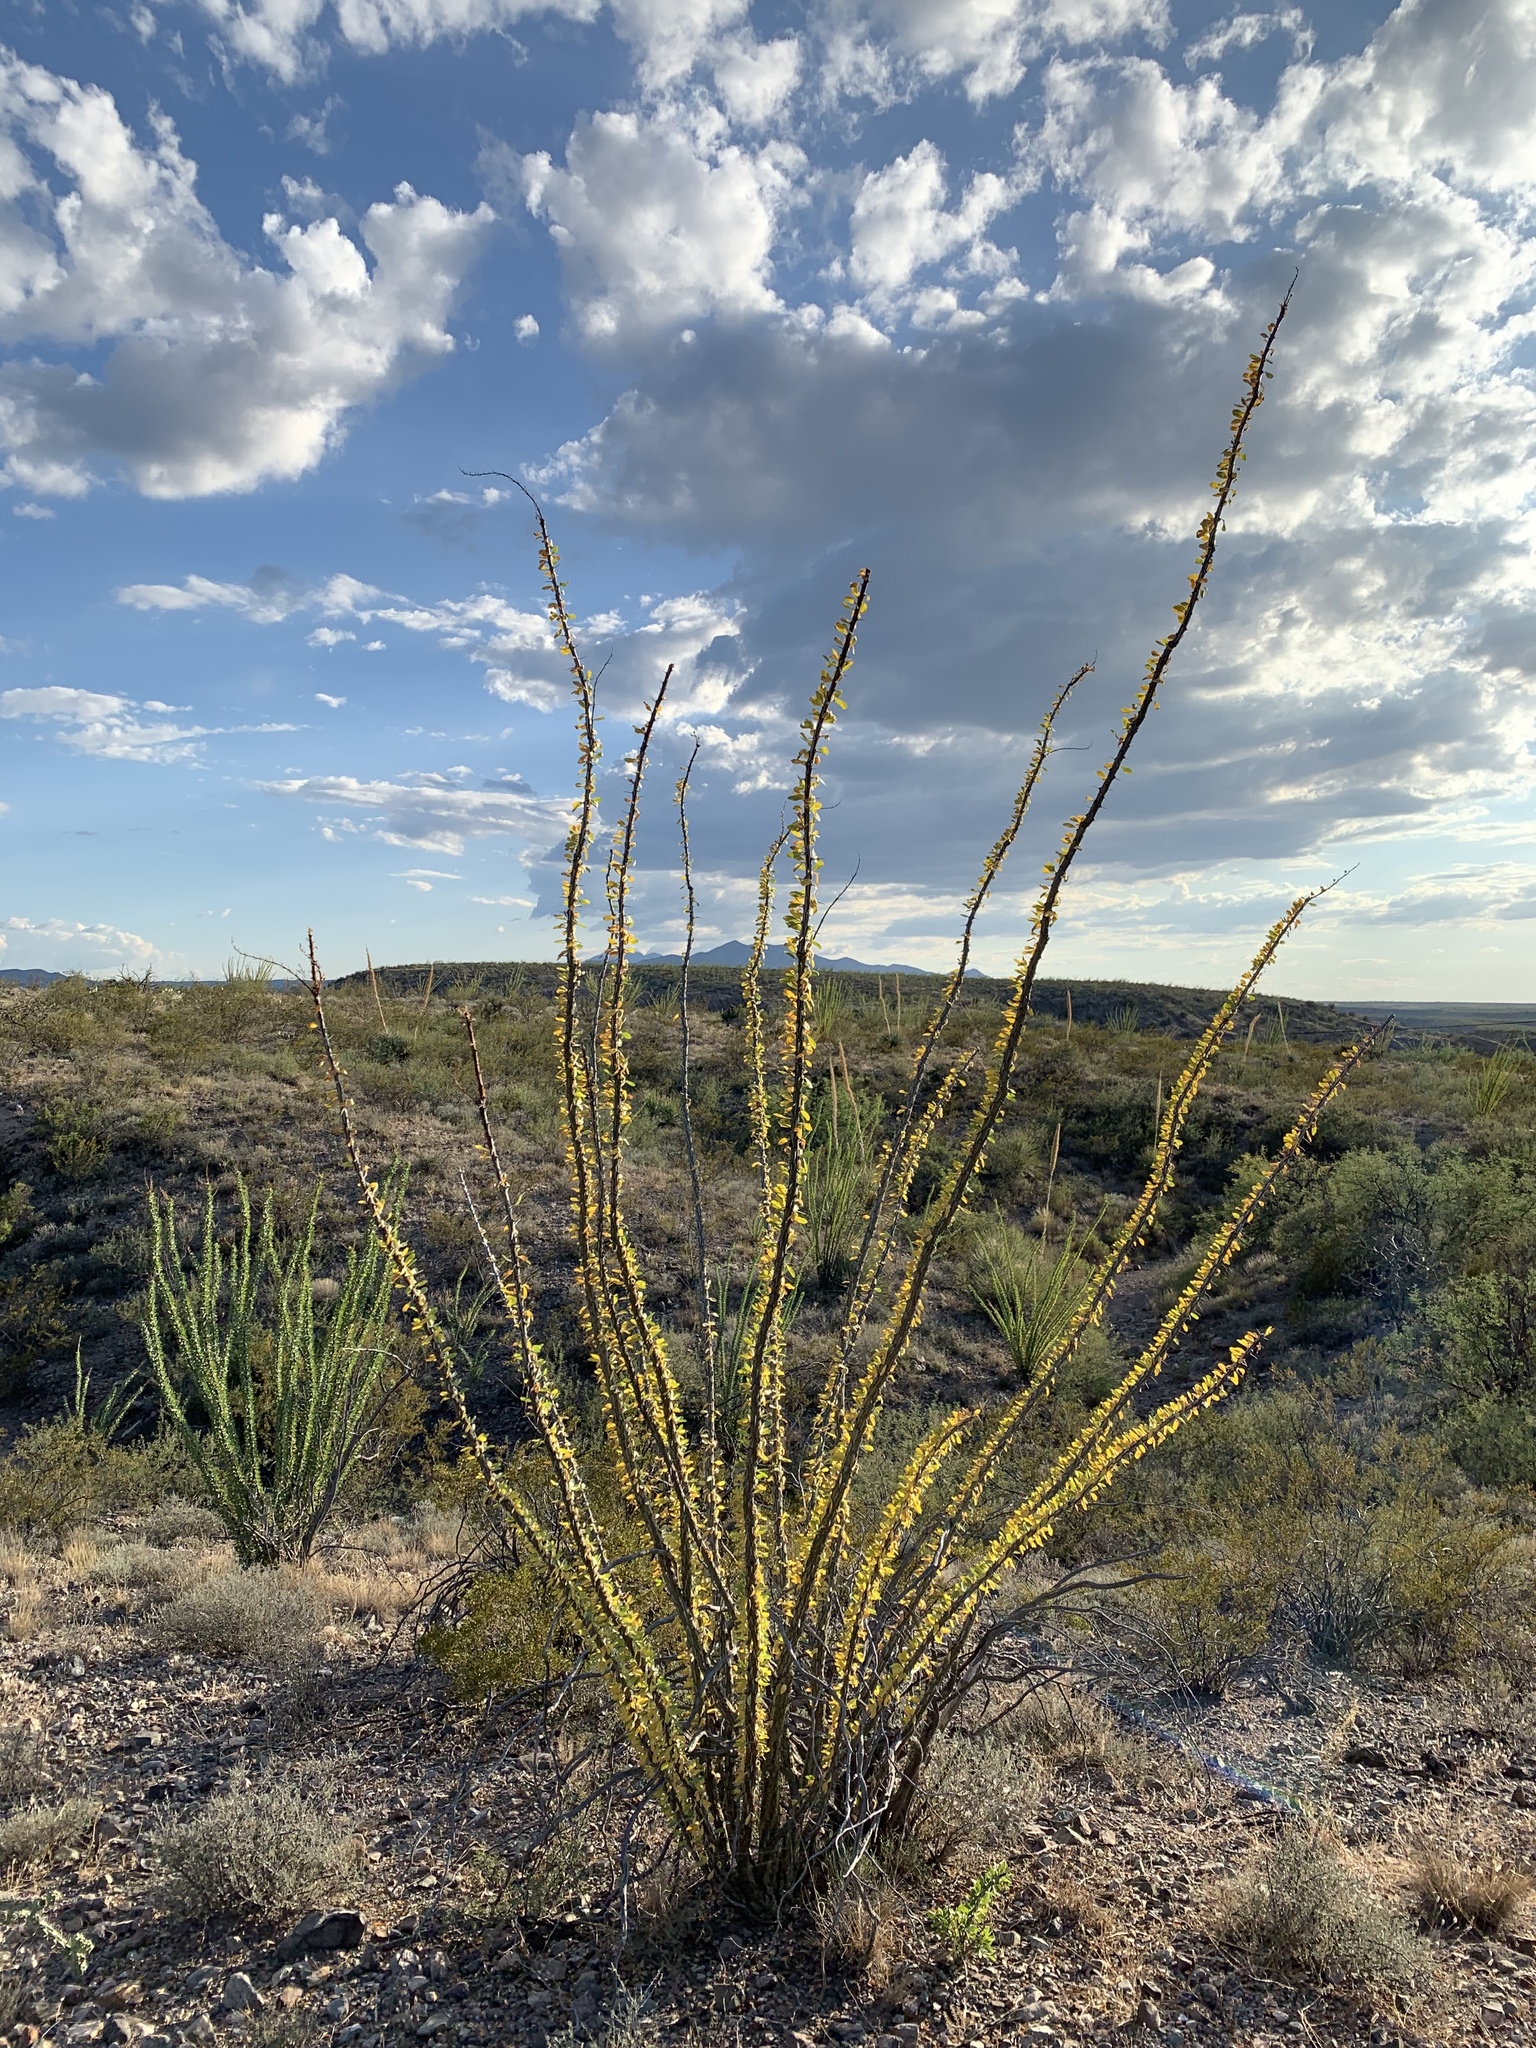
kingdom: Plantae
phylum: Tracheophyta
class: Magnoliopsida
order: Ericales
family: Fouquieriaceae
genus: Fouquieria
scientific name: Fouquieria splendens
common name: Vine-cactus
